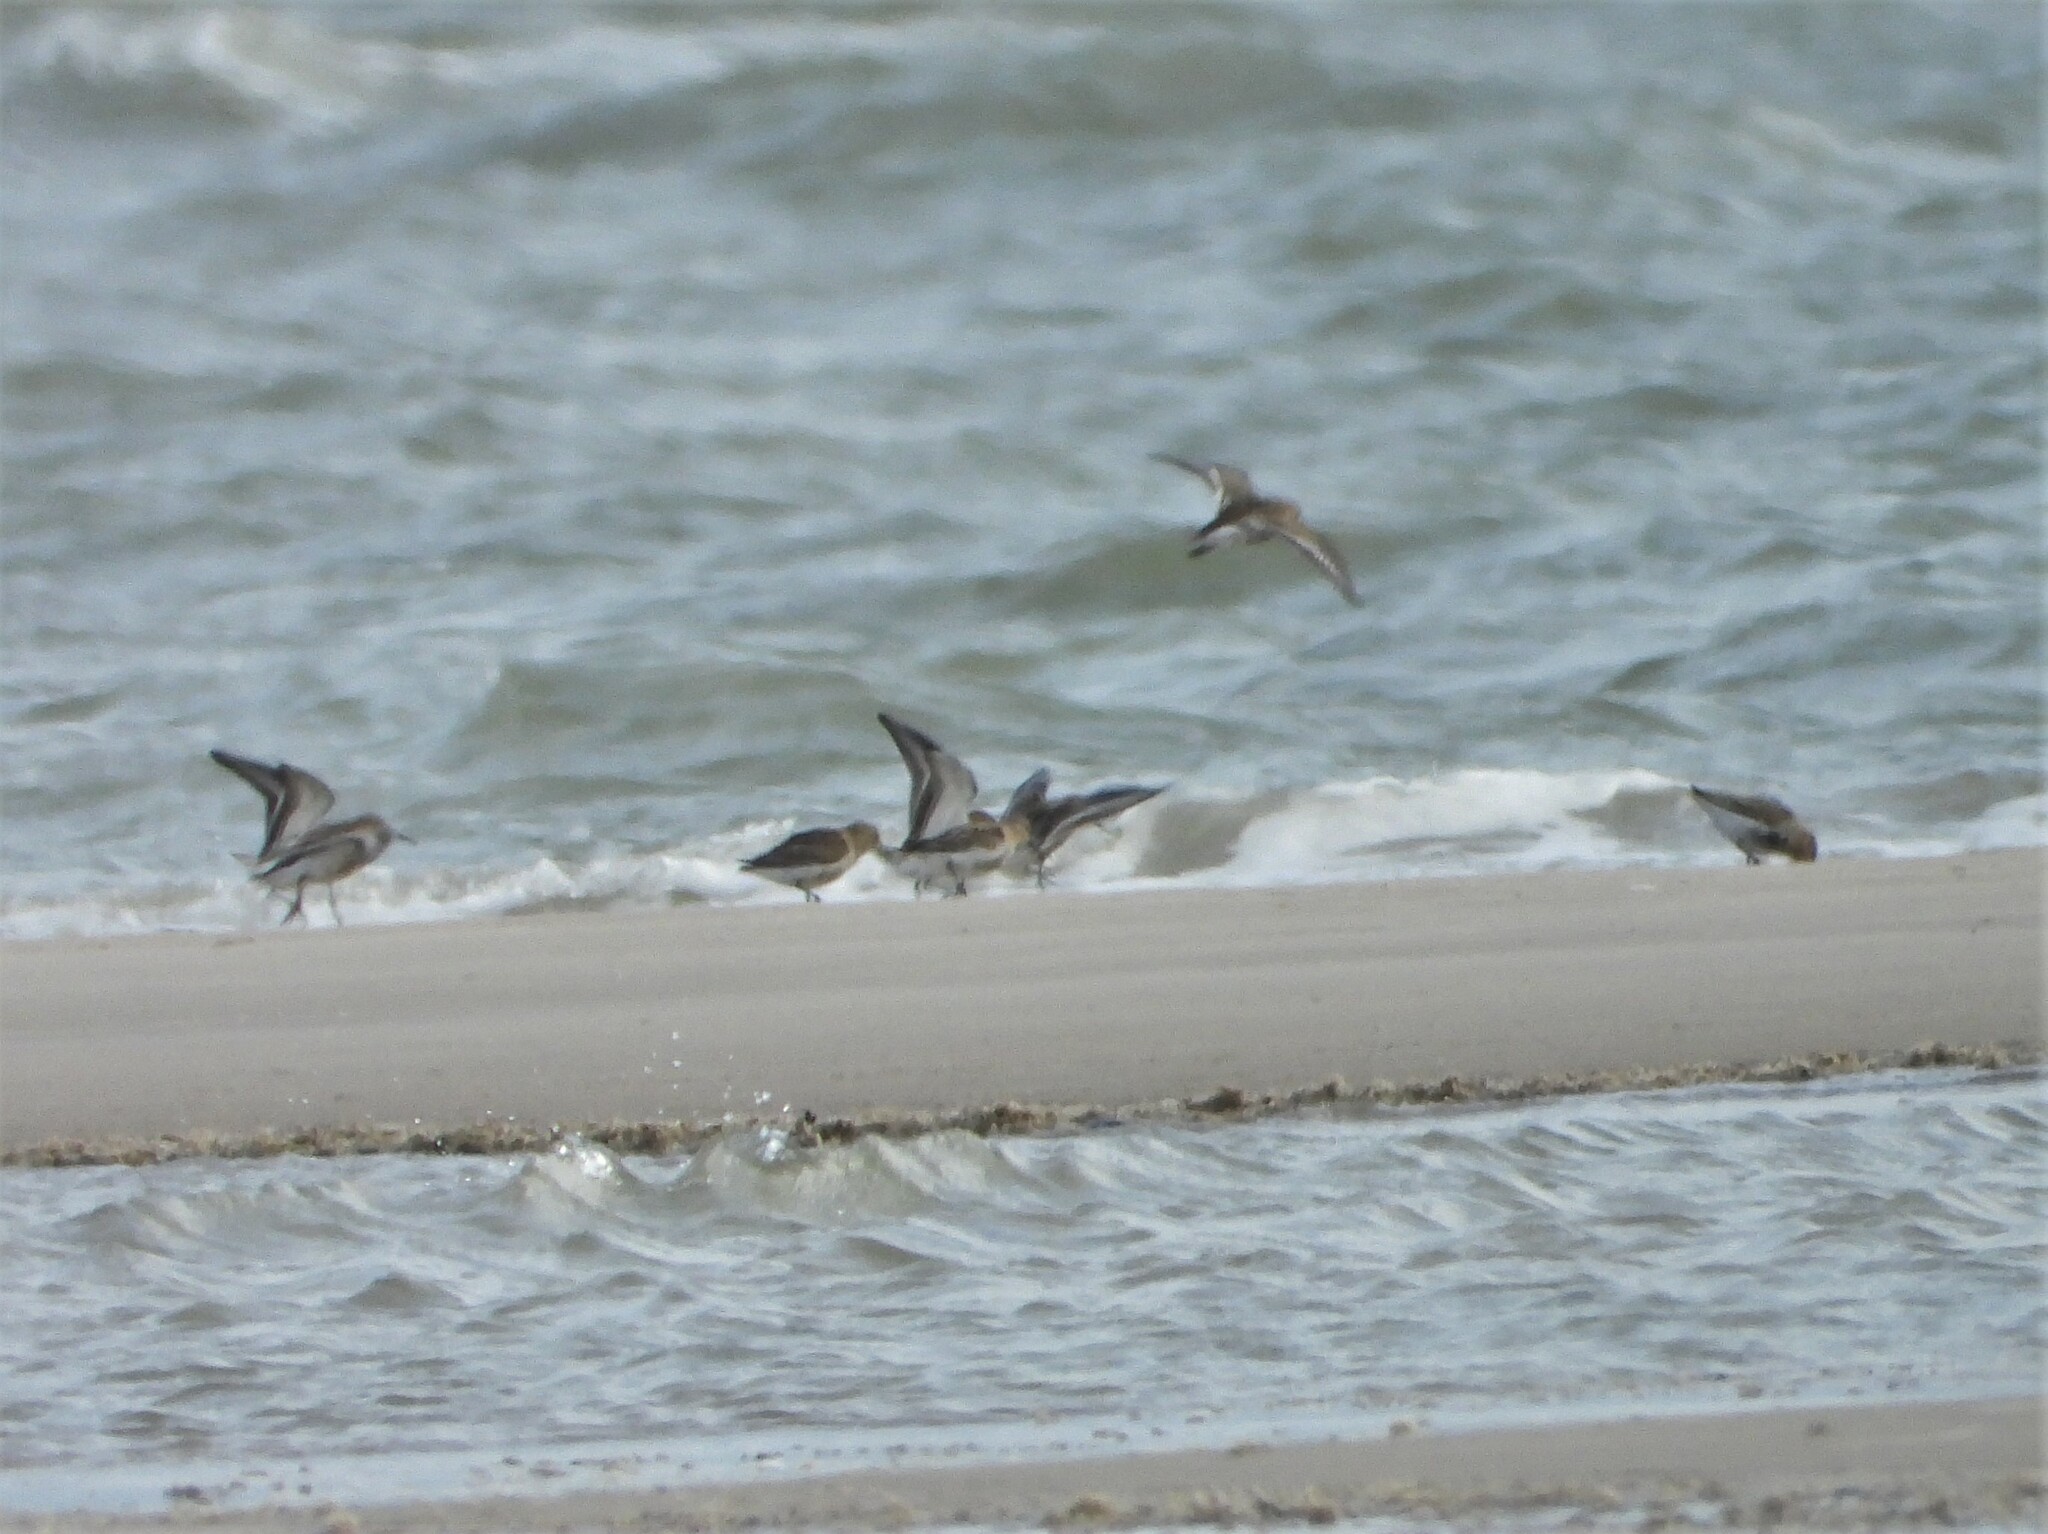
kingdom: Animalia
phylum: Chordata
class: Aves
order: Charadriiformes
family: Scolopacidae
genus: Calidris
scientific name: Calidris alpina
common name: Dunlin
